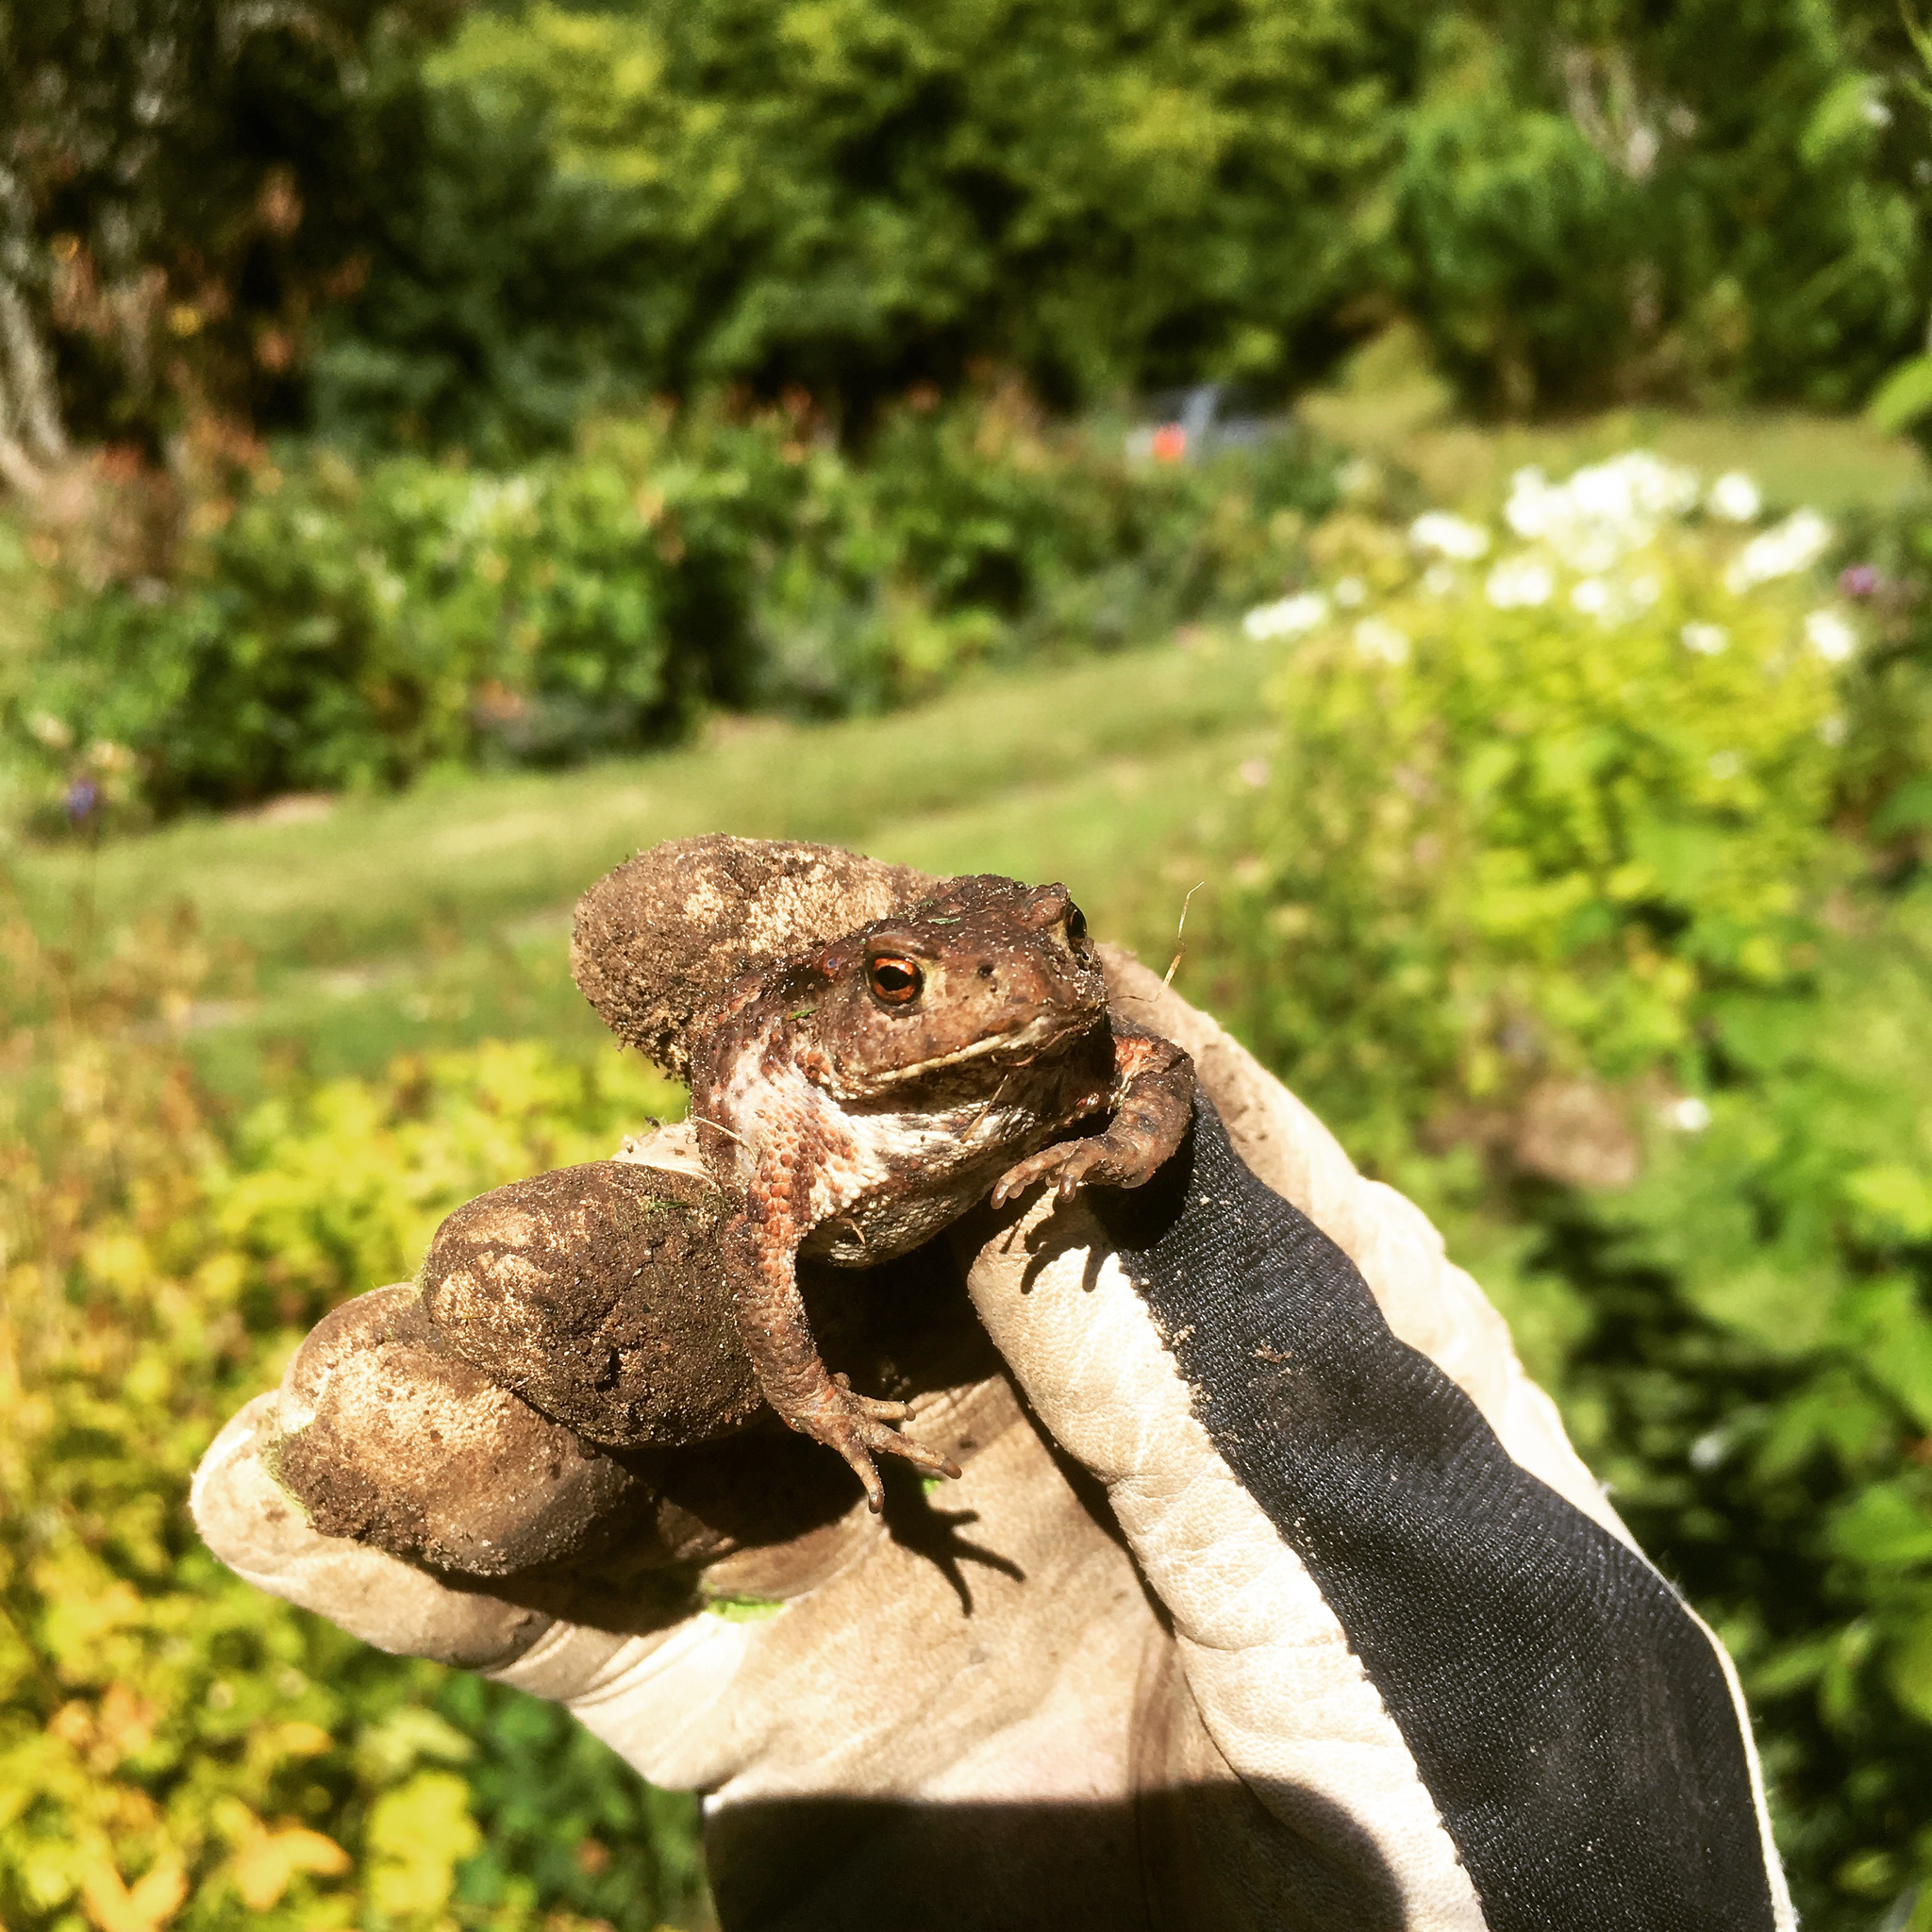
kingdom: Animalia
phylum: Chordata
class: Amphibia
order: Anura
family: Bufonidae
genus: Bufo
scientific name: Bufo bufo
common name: Common toad
